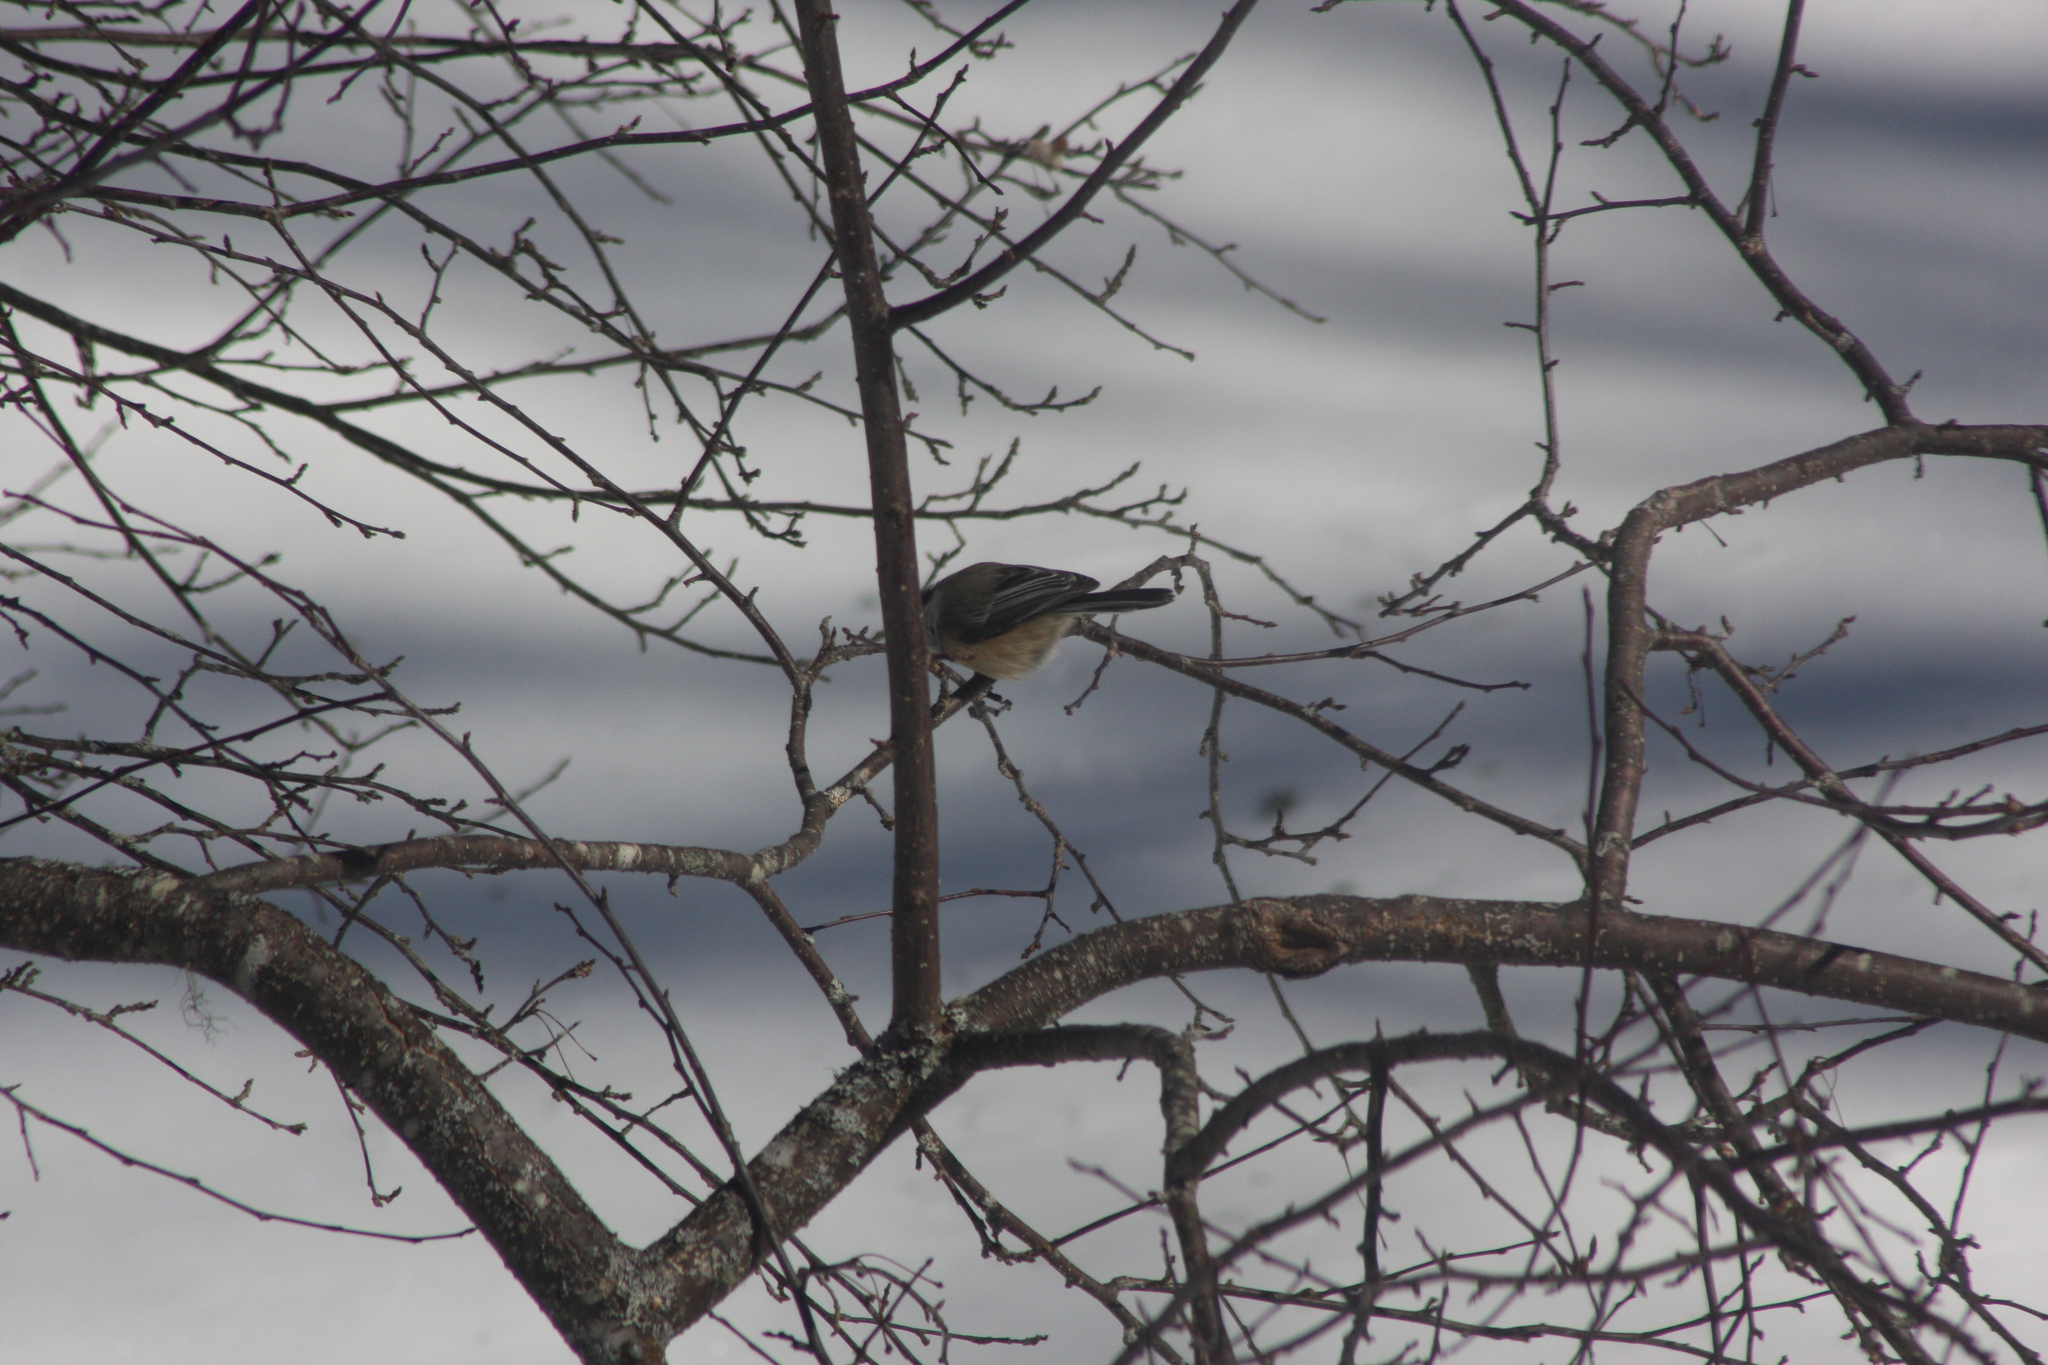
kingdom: Animalia
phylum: Chordata
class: Aves
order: Passeriformes
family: Paridae
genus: Poecile
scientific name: Poecile atricapillus
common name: Black-capped chickadee
